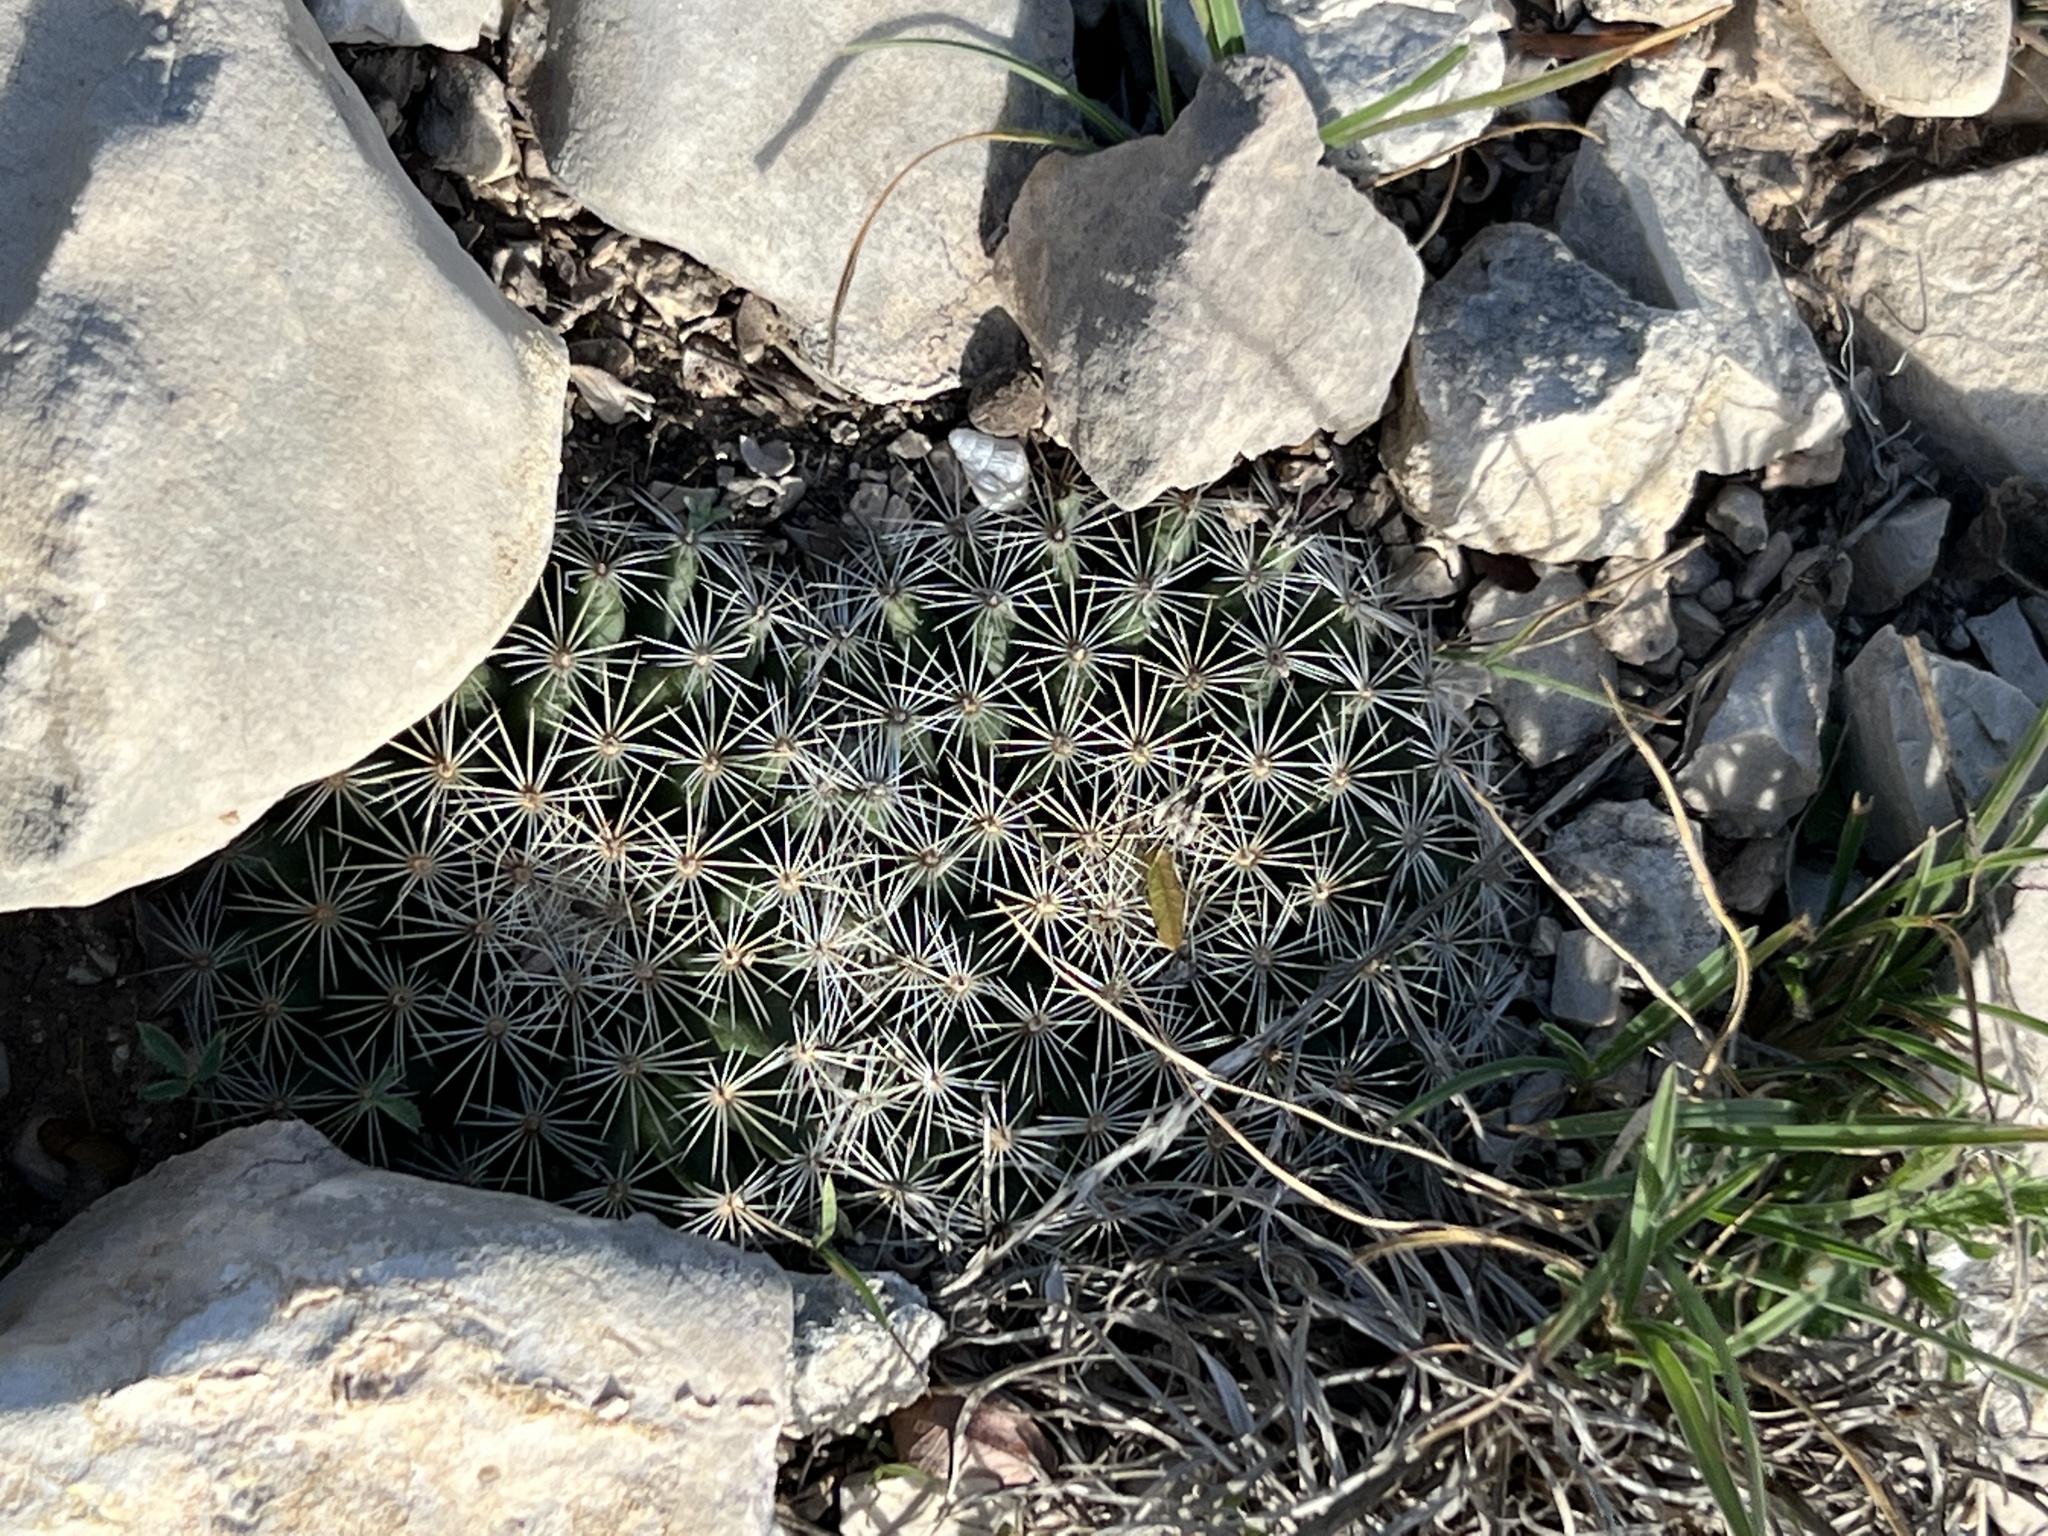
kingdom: Plantae
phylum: Tracheophyta
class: Magnoliopsida
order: Caryophyllales
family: Cactaceae
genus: Mammillaria
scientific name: Mammillaria heyderi
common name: Little nipple cactus
